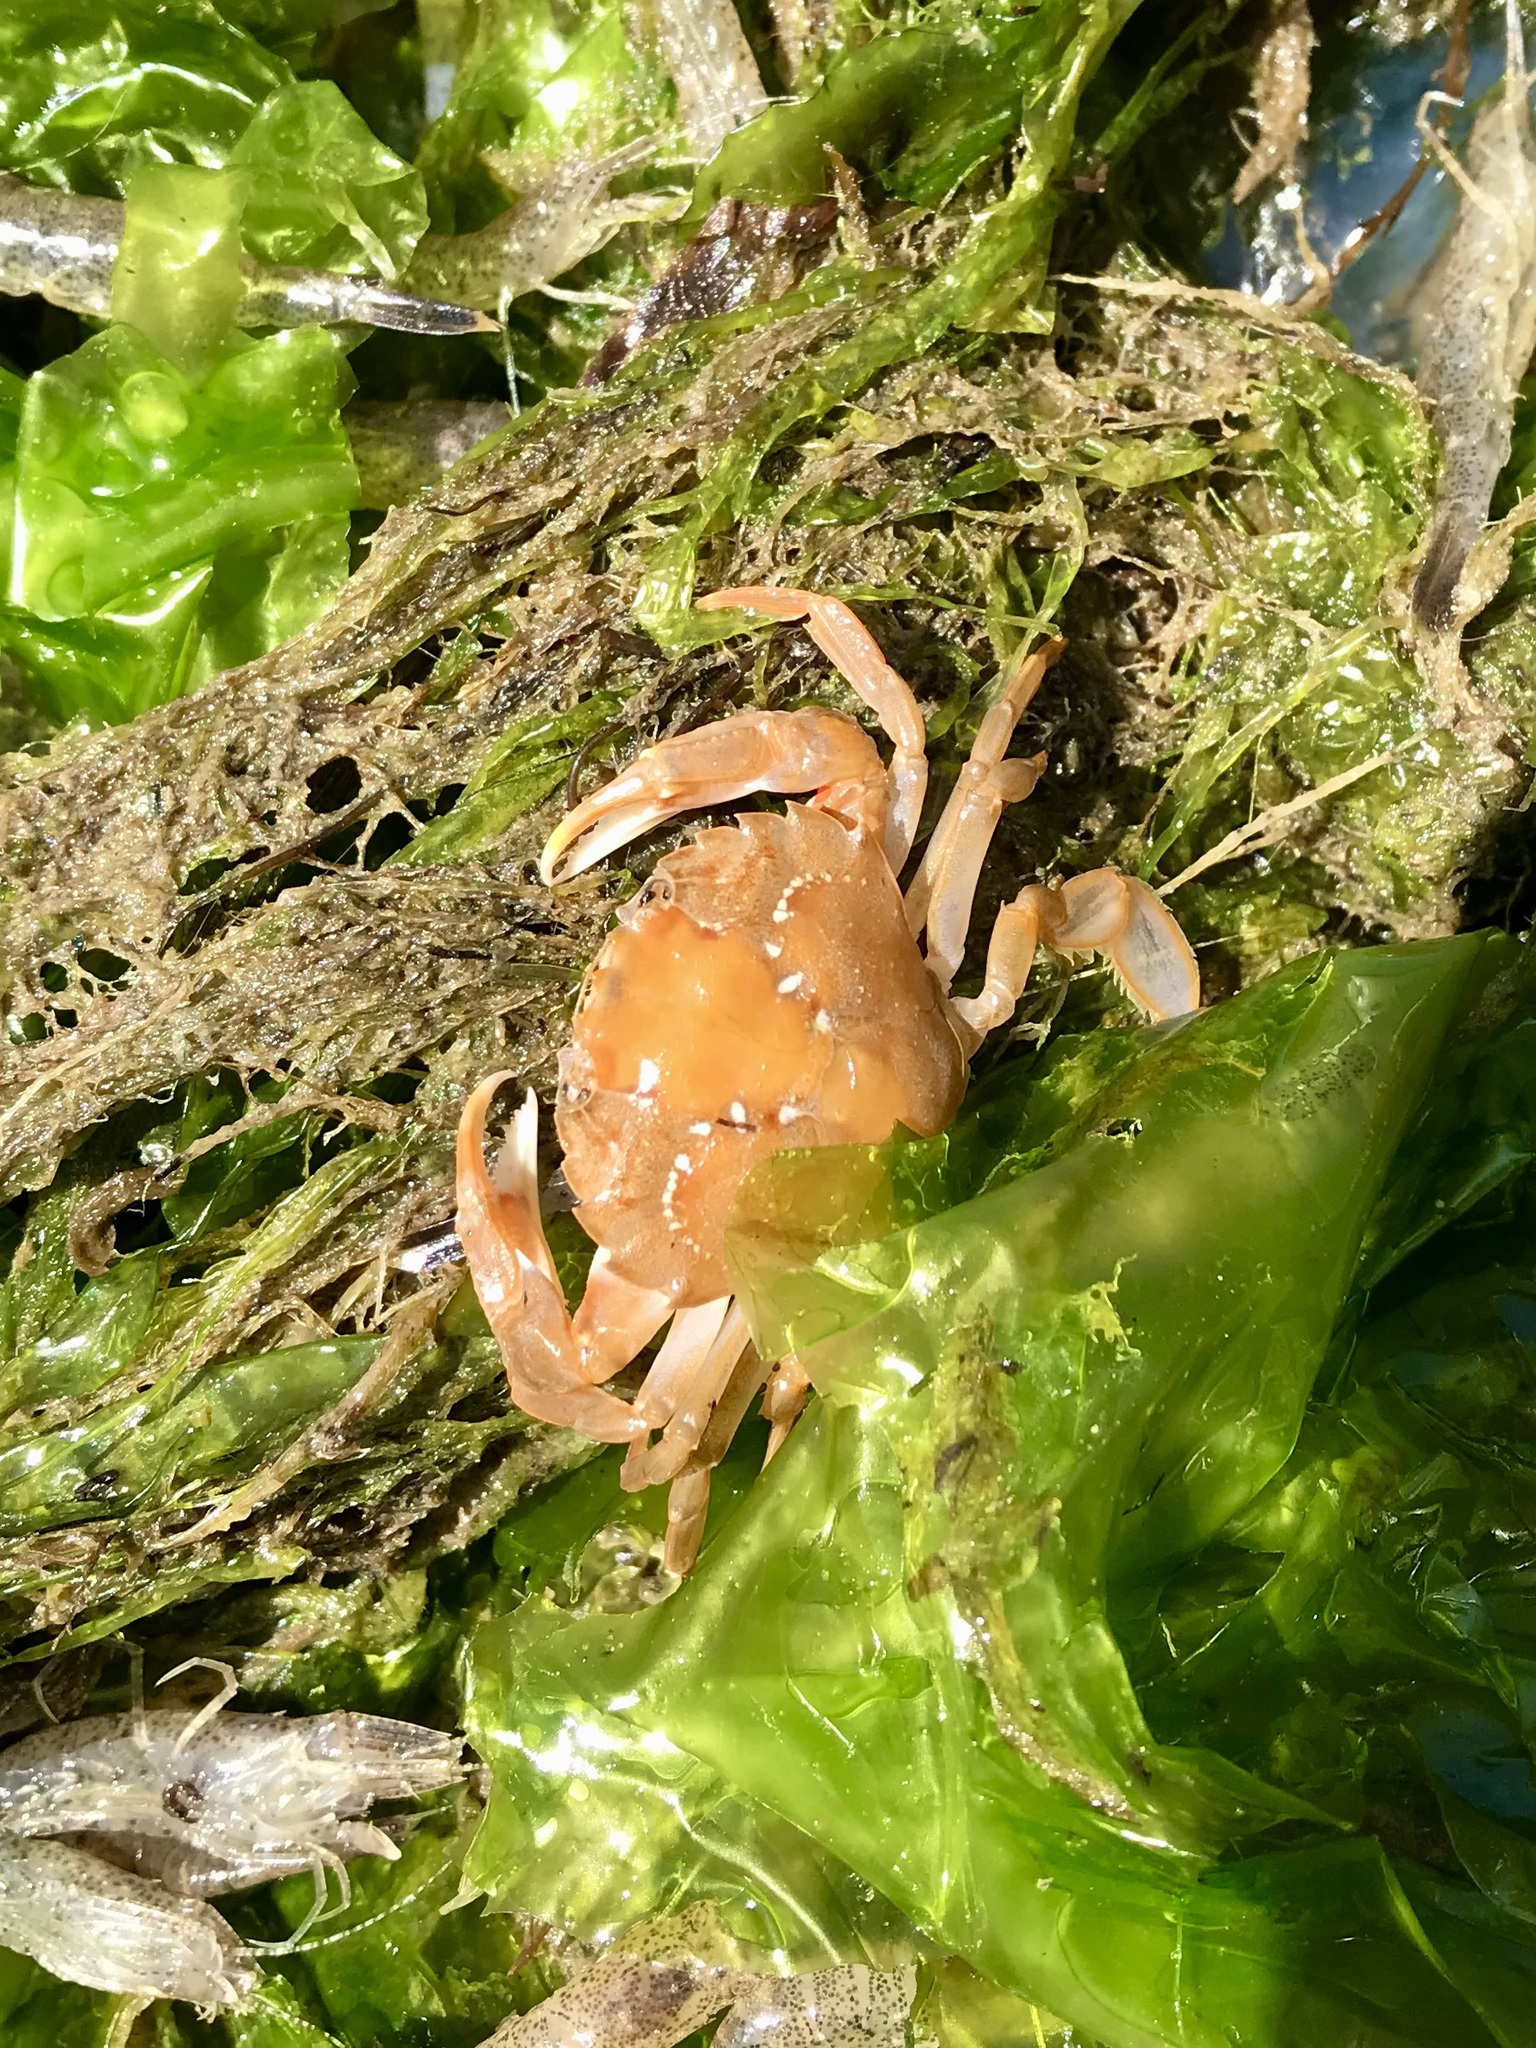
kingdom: Animalia
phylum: Arthropoda
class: Malacostraca
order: Decapoda
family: Polybiidae
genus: Liocarcinus
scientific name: Liocarcinus vernalis
